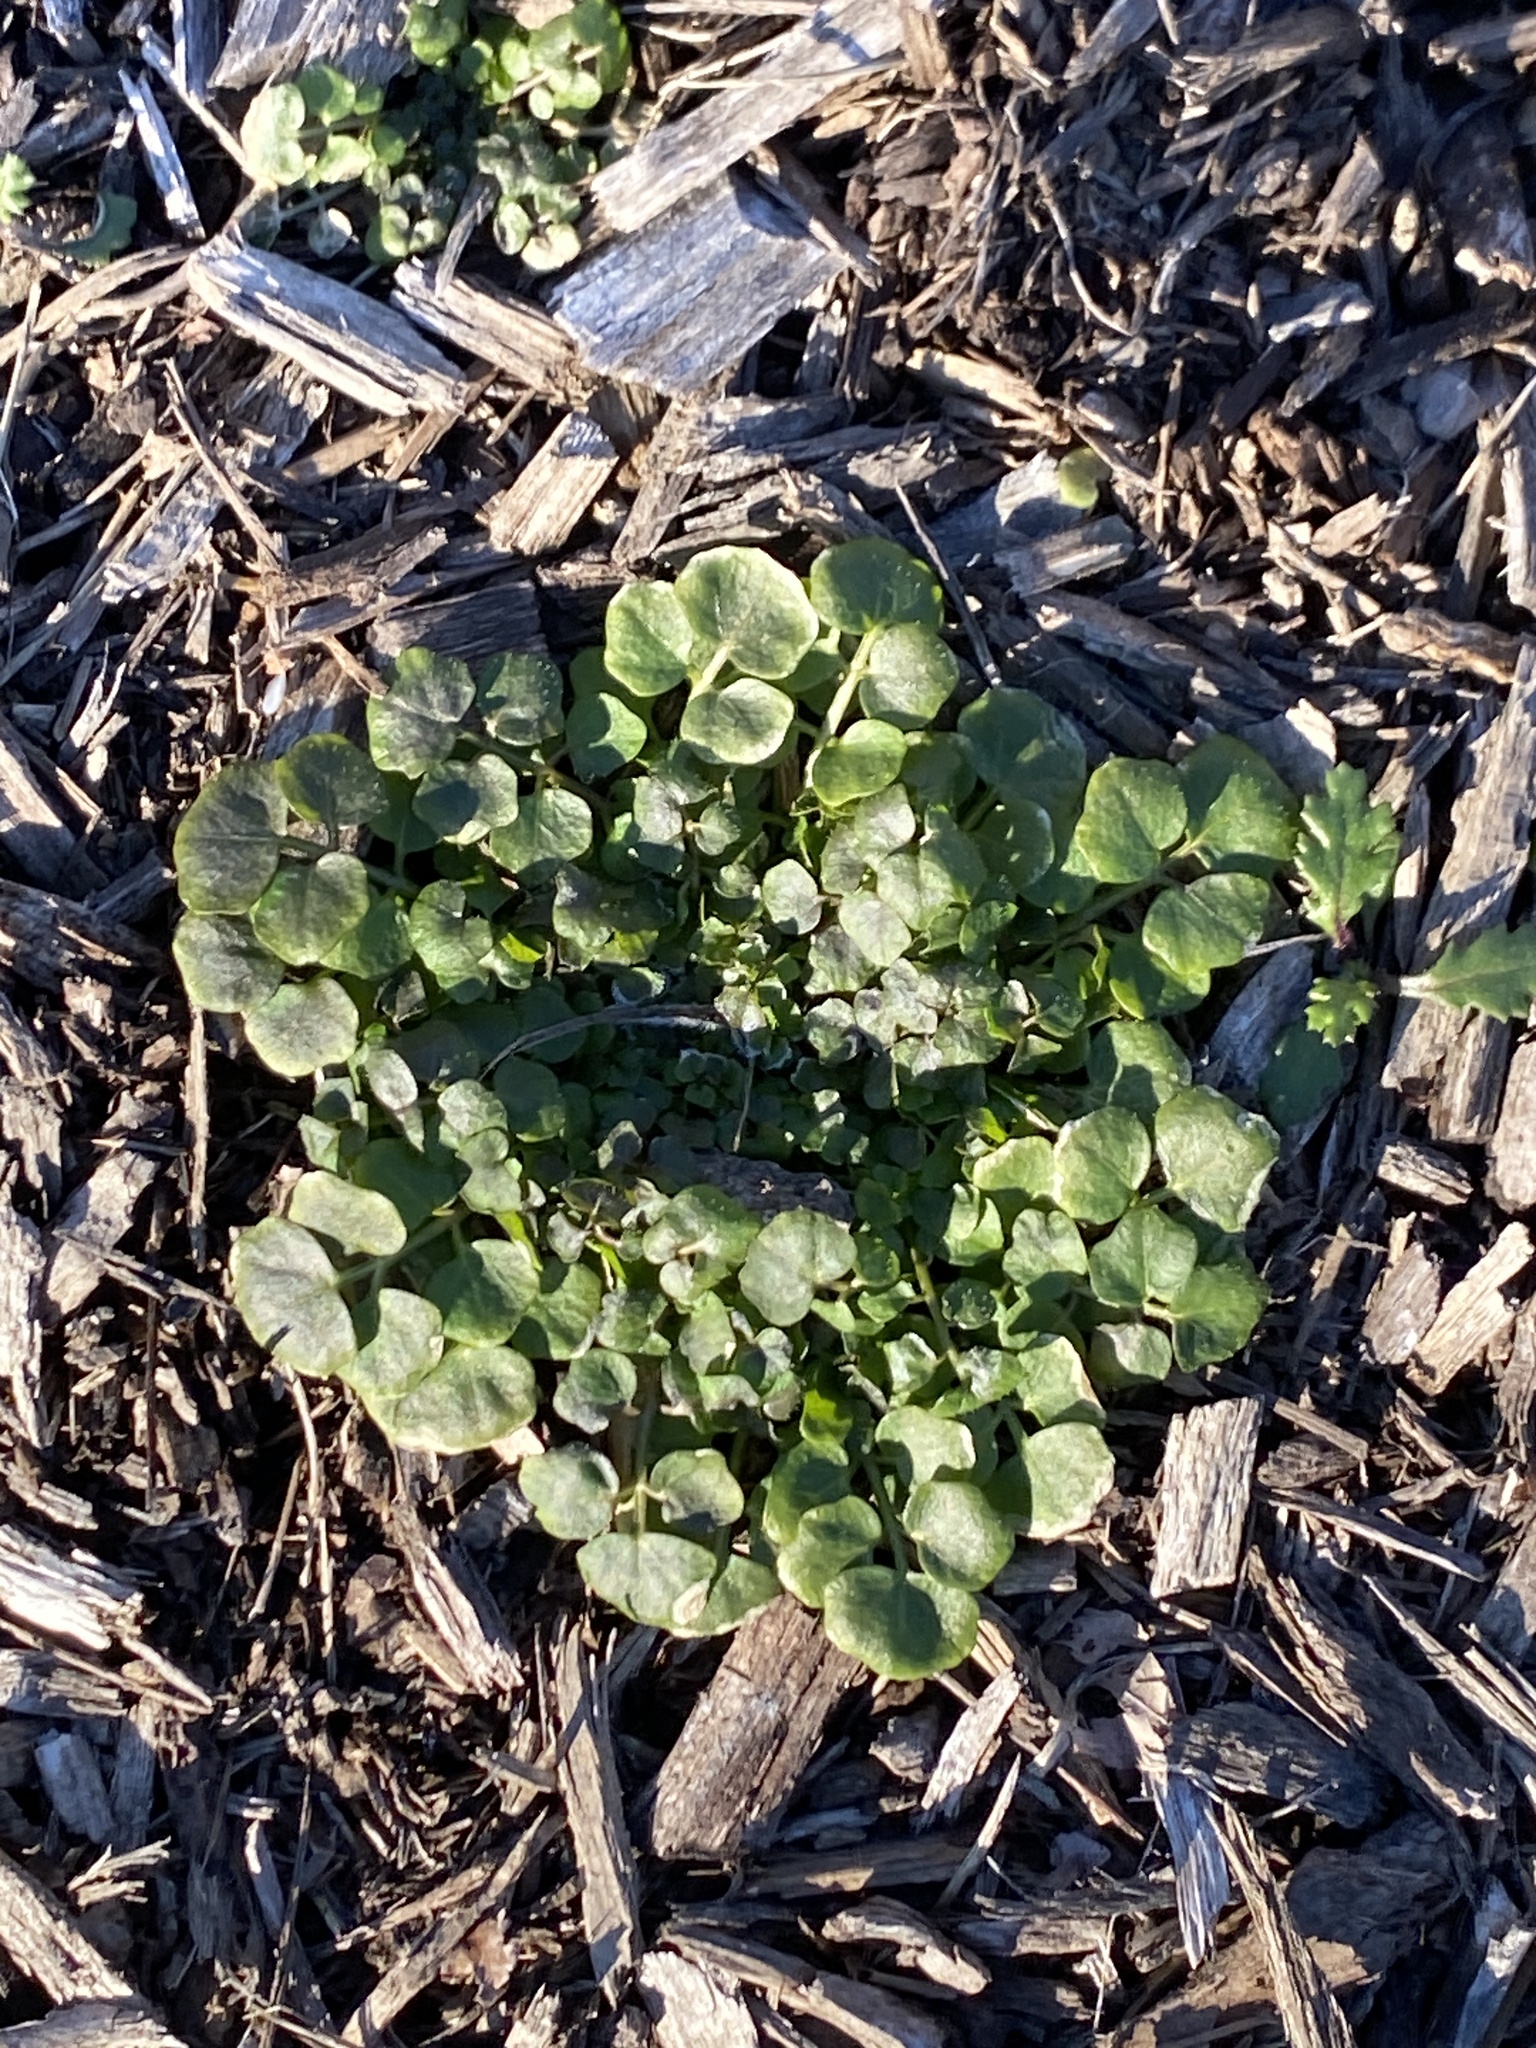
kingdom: Plantae
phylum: Tracheophyta
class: Magnoliopsida
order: Brassicales
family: Brassicaceae
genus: Cardamine
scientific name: Cardamine hirsuta
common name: Hairy bittercress
